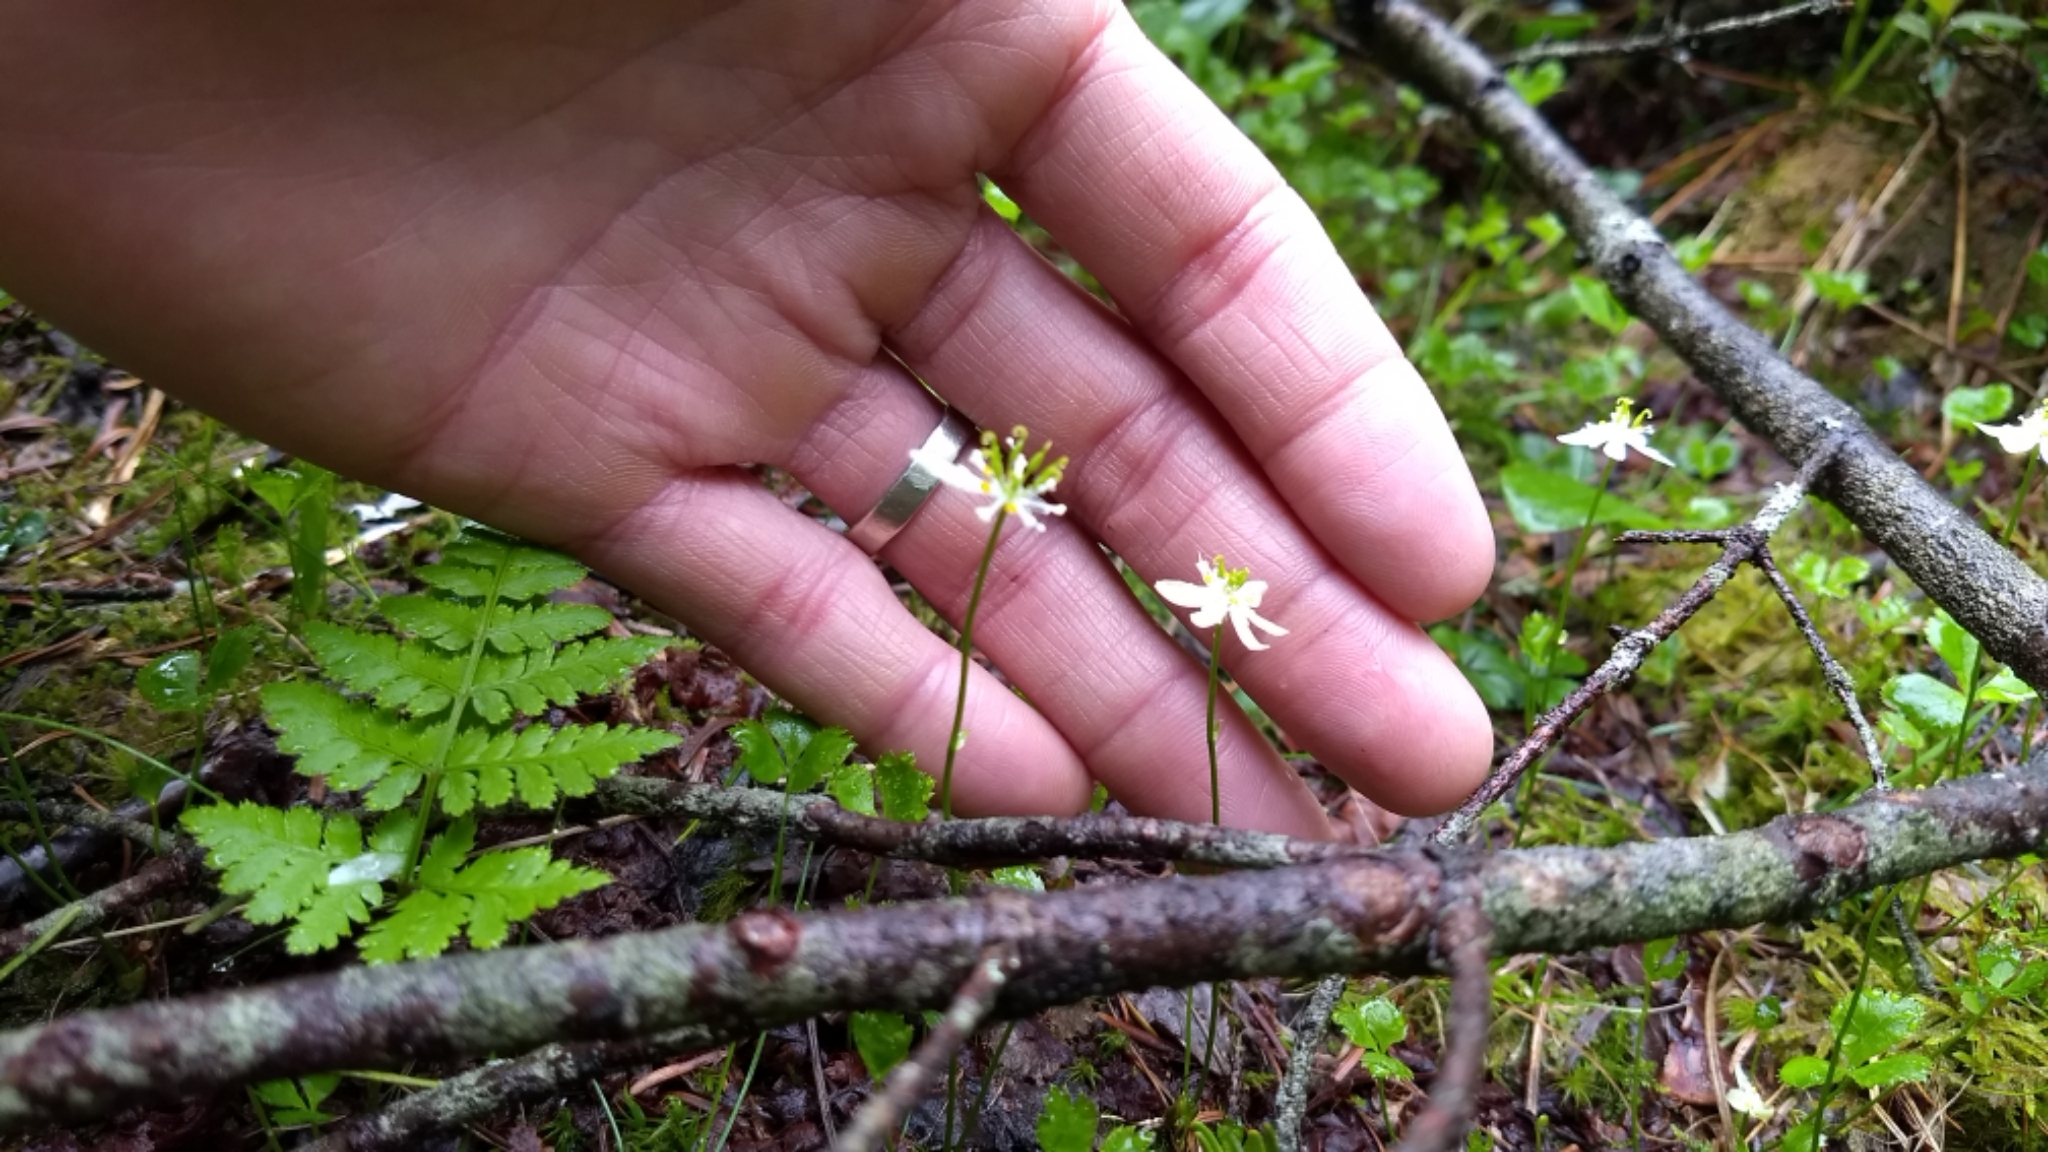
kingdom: Plantae
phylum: Tracheophyta
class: Magnoliopsida
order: Ranunculales
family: Ranunculaceae
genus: Coptis
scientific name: Coptis trifolia
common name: Canker-root
